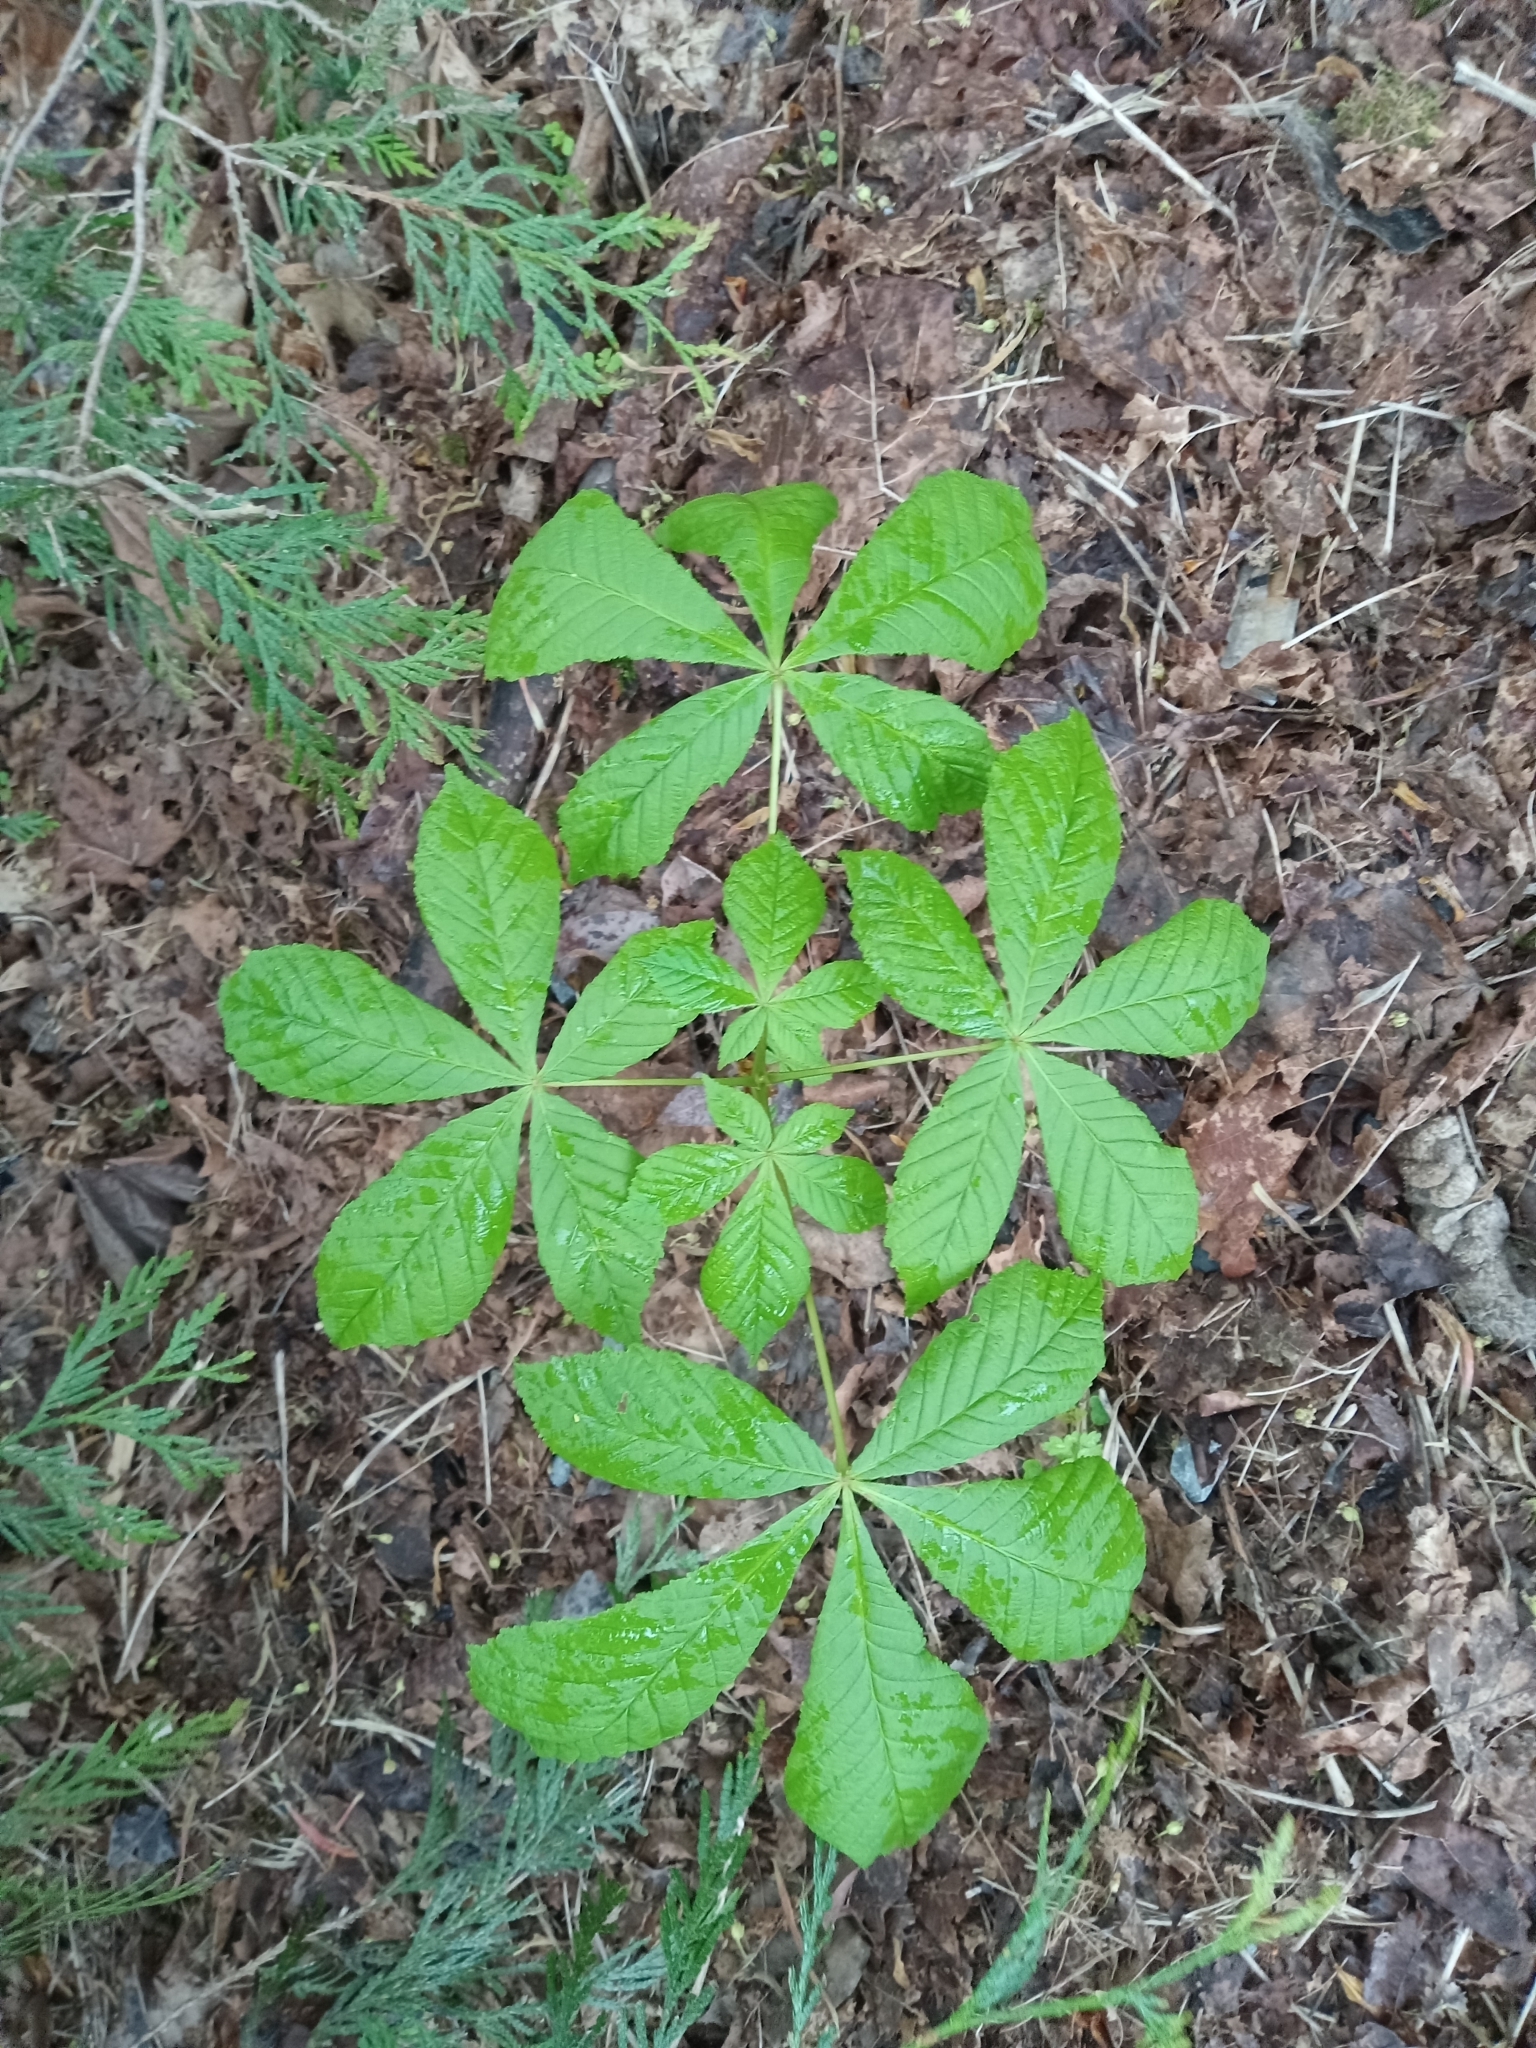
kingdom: Plantae
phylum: Tracheophyta
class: Magnoliopsida
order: Sapindales
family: Sapindaceae
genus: Aesculus
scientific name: Aesculus hippocastanum
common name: Horse-chestnut
